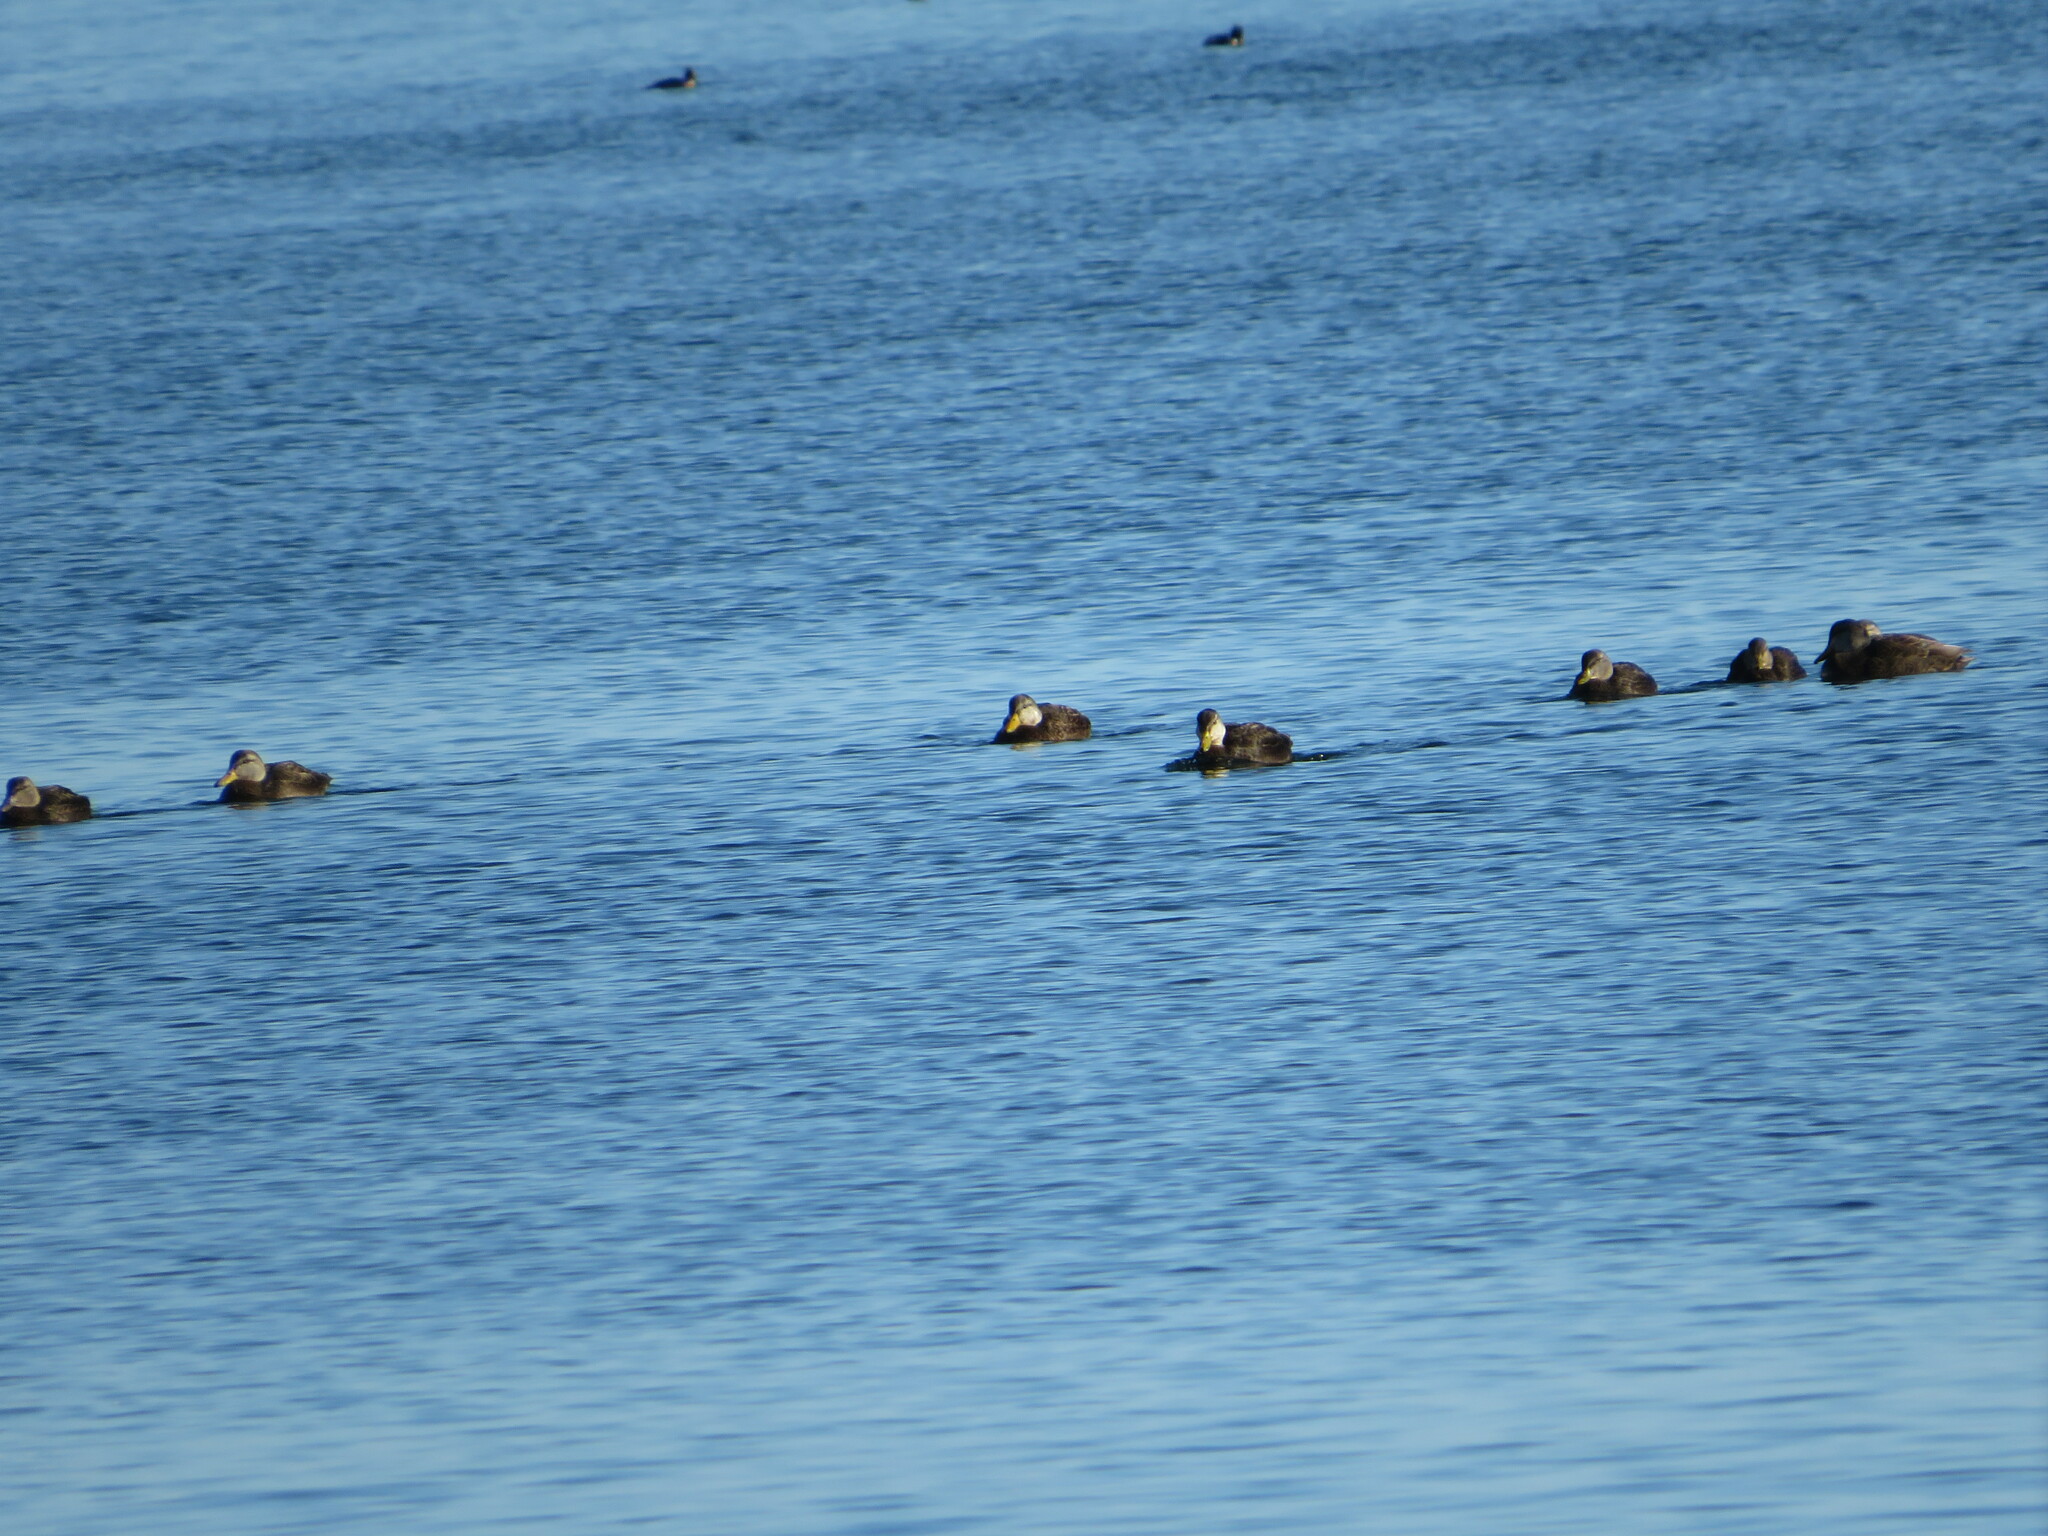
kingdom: Animalia
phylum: Chordata
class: Aves
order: Anseriformes
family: Anatidae
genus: Anas
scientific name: Anas rubripes
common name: American black duck
